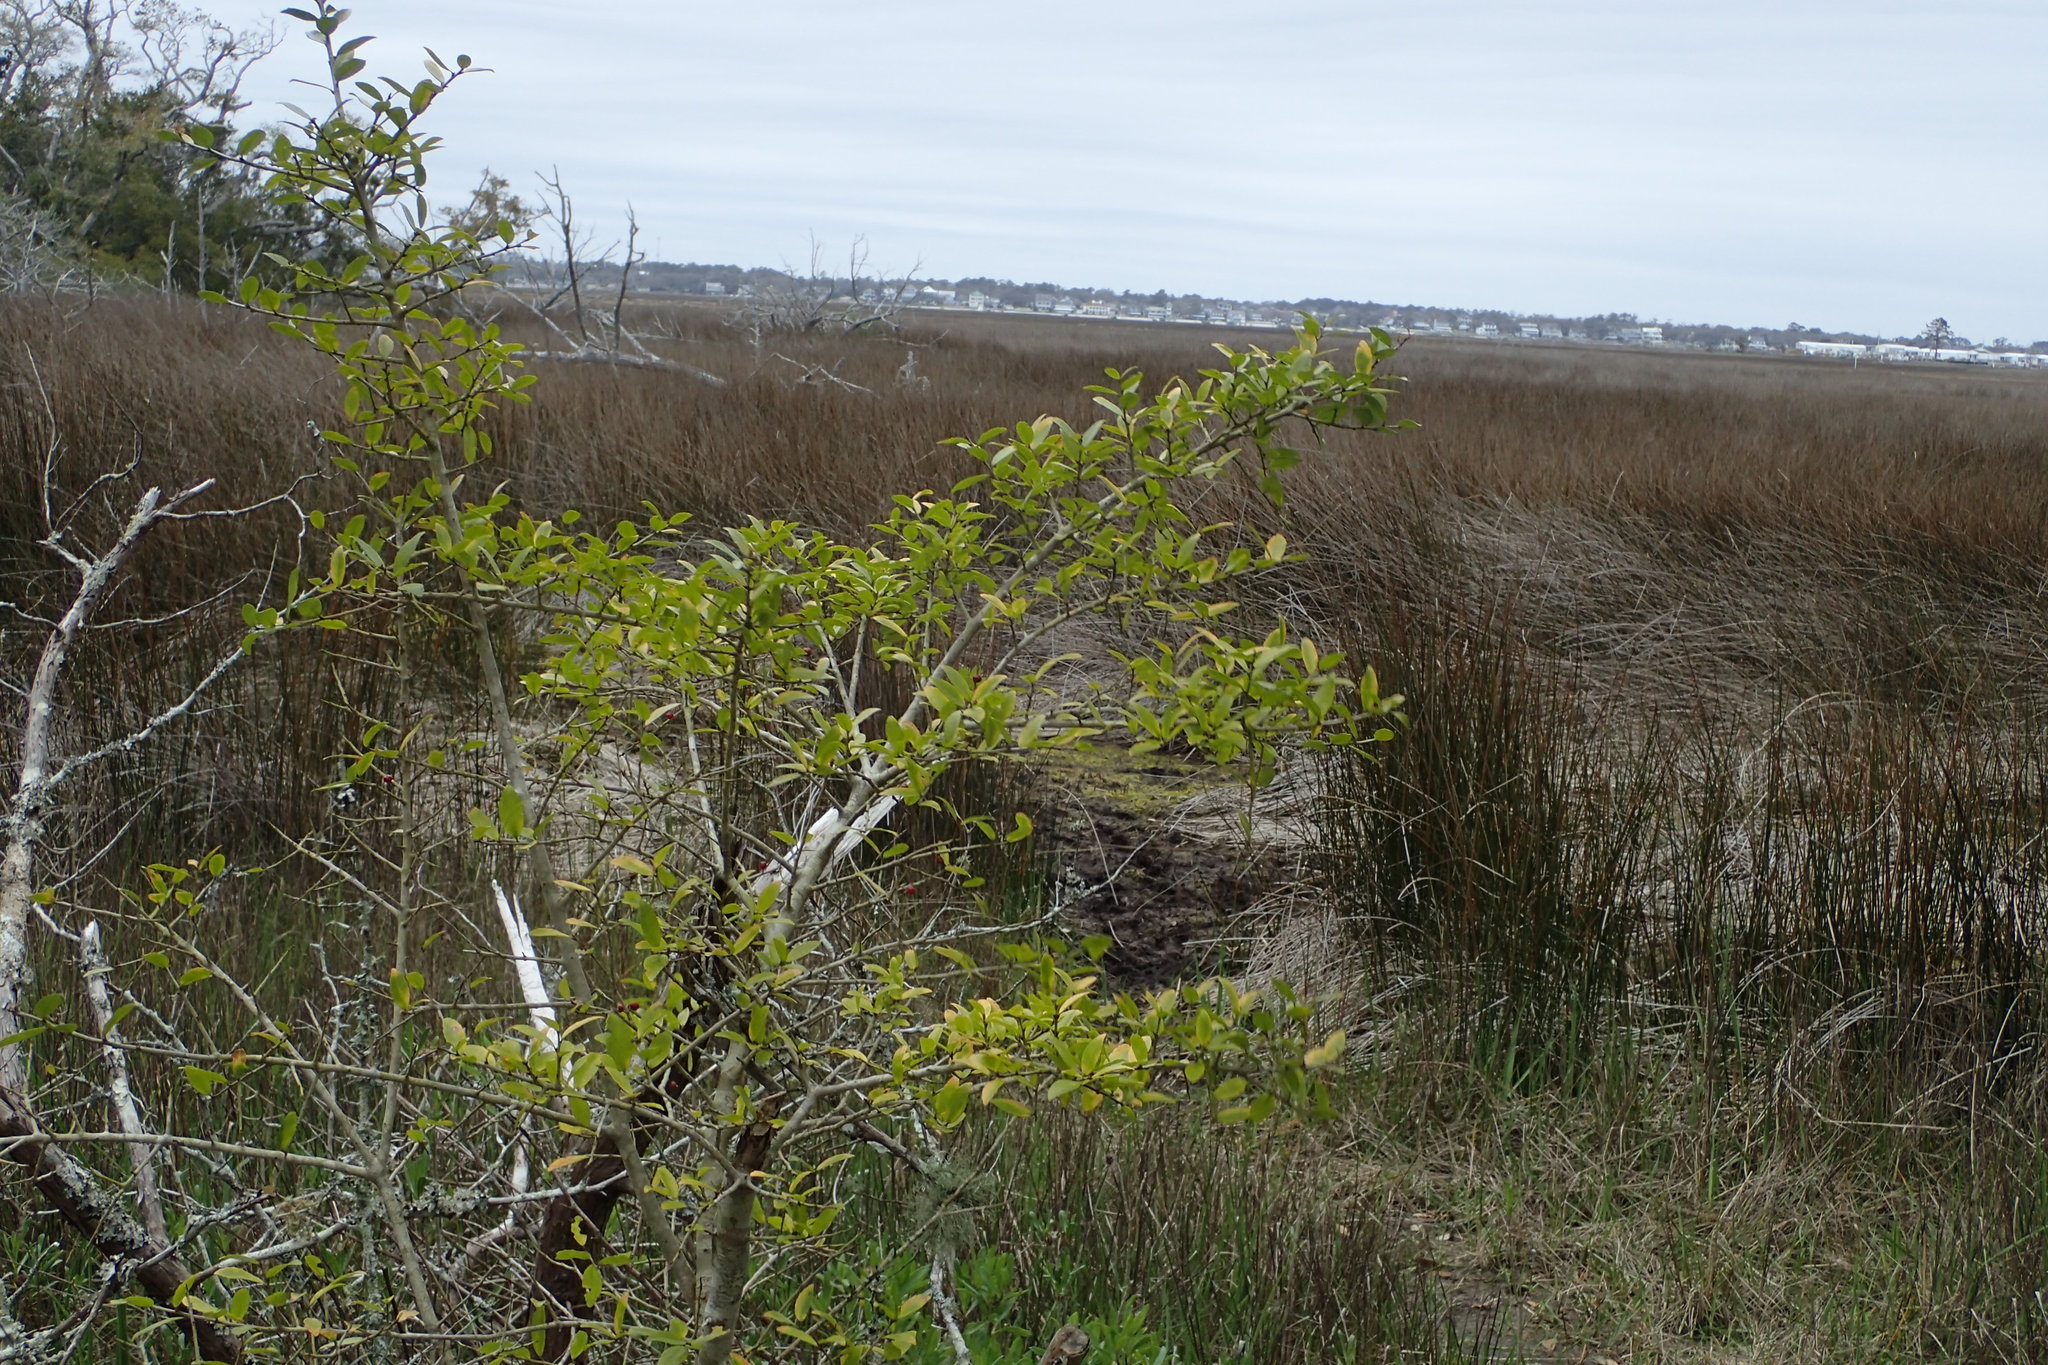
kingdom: Plantae
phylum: Tracheophyta
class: Magnoliopsida
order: Aquifoliales
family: Aquifoliaceae
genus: Ilex
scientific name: Ilex vomitoria
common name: Yaupon holly
